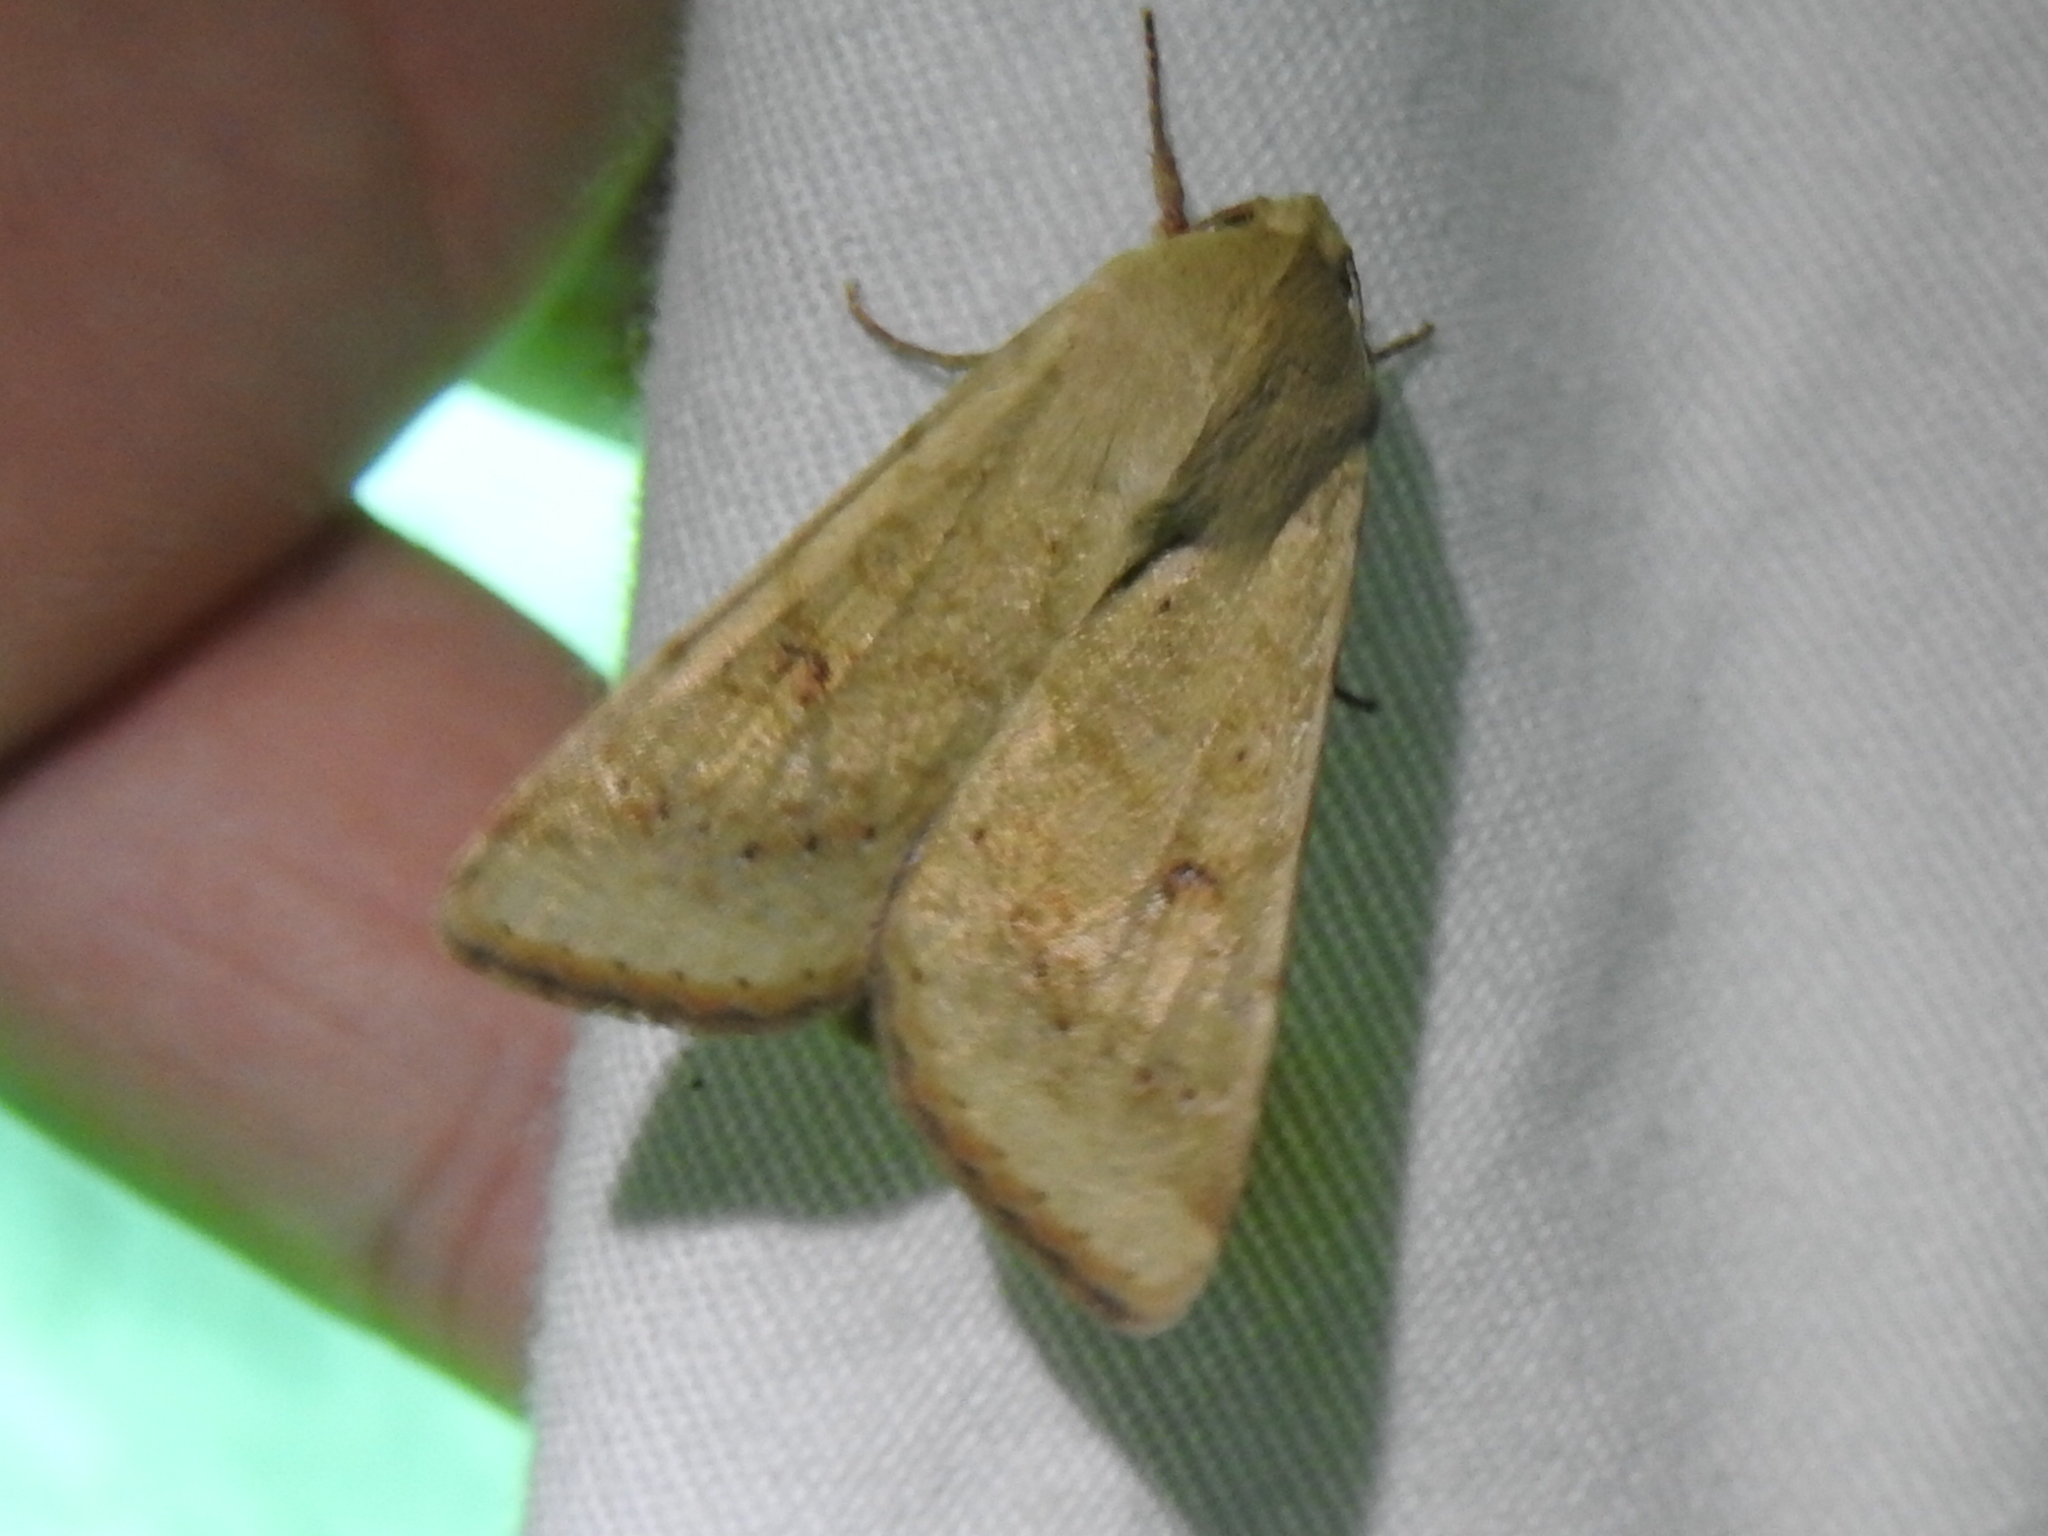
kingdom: Animalia
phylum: Arthropoda
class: Insecta
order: Lepidoptera
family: Noctuidae
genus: Helicoverpa
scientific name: Helicoverpa zea
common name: Bollworm
